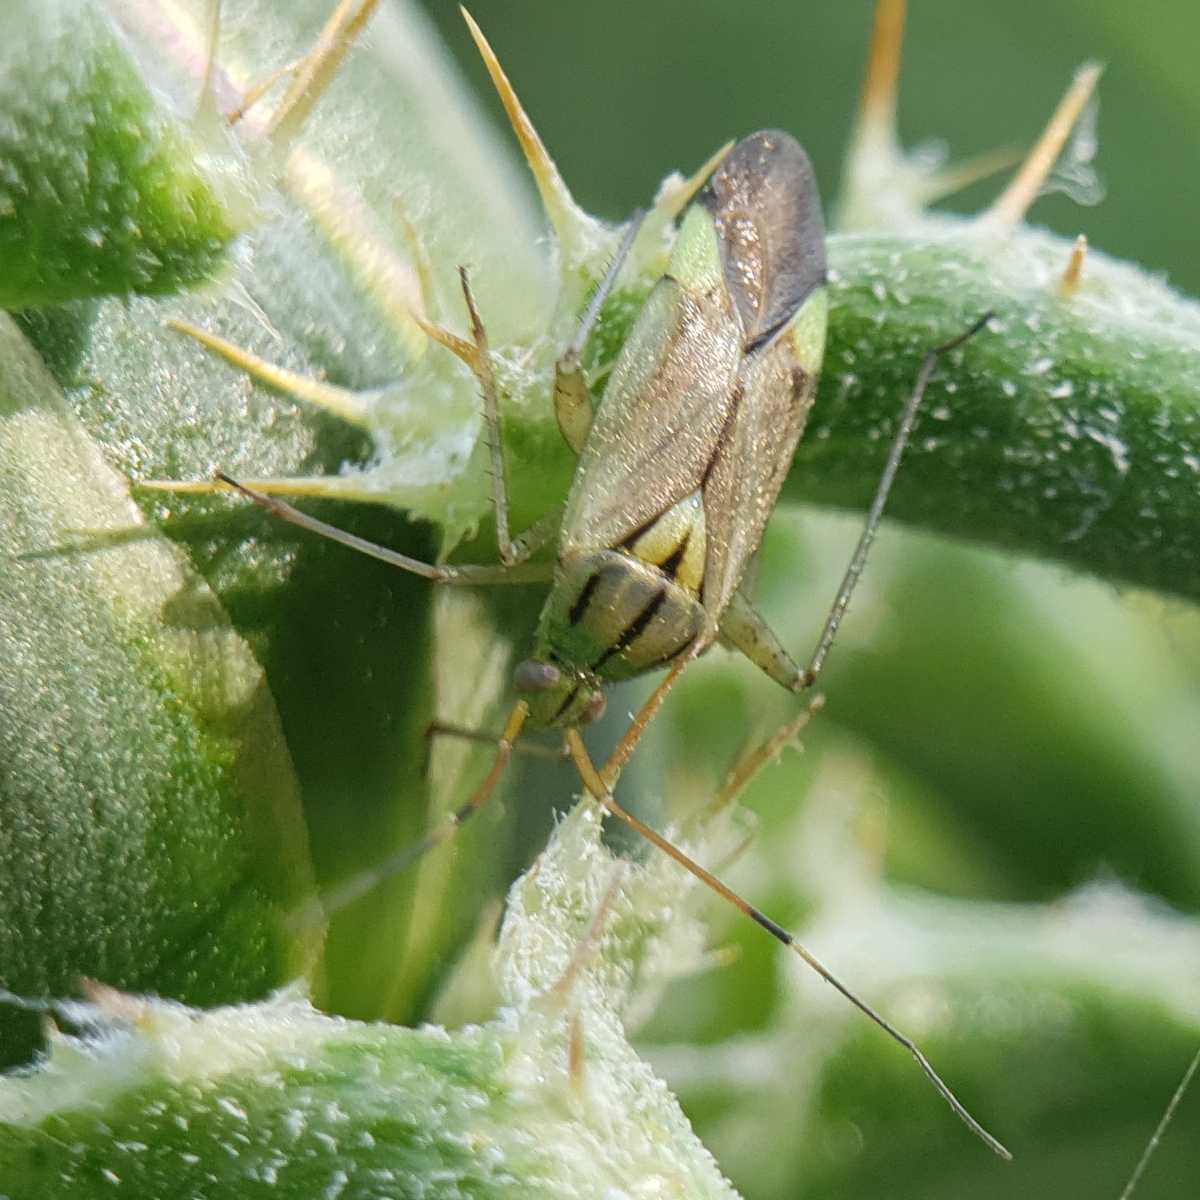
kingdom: Animalia
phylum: Arthropoda
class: Insecta
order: Hemiptera
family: Miridae
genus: Closterotomus
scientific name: Closterotomus putoni
